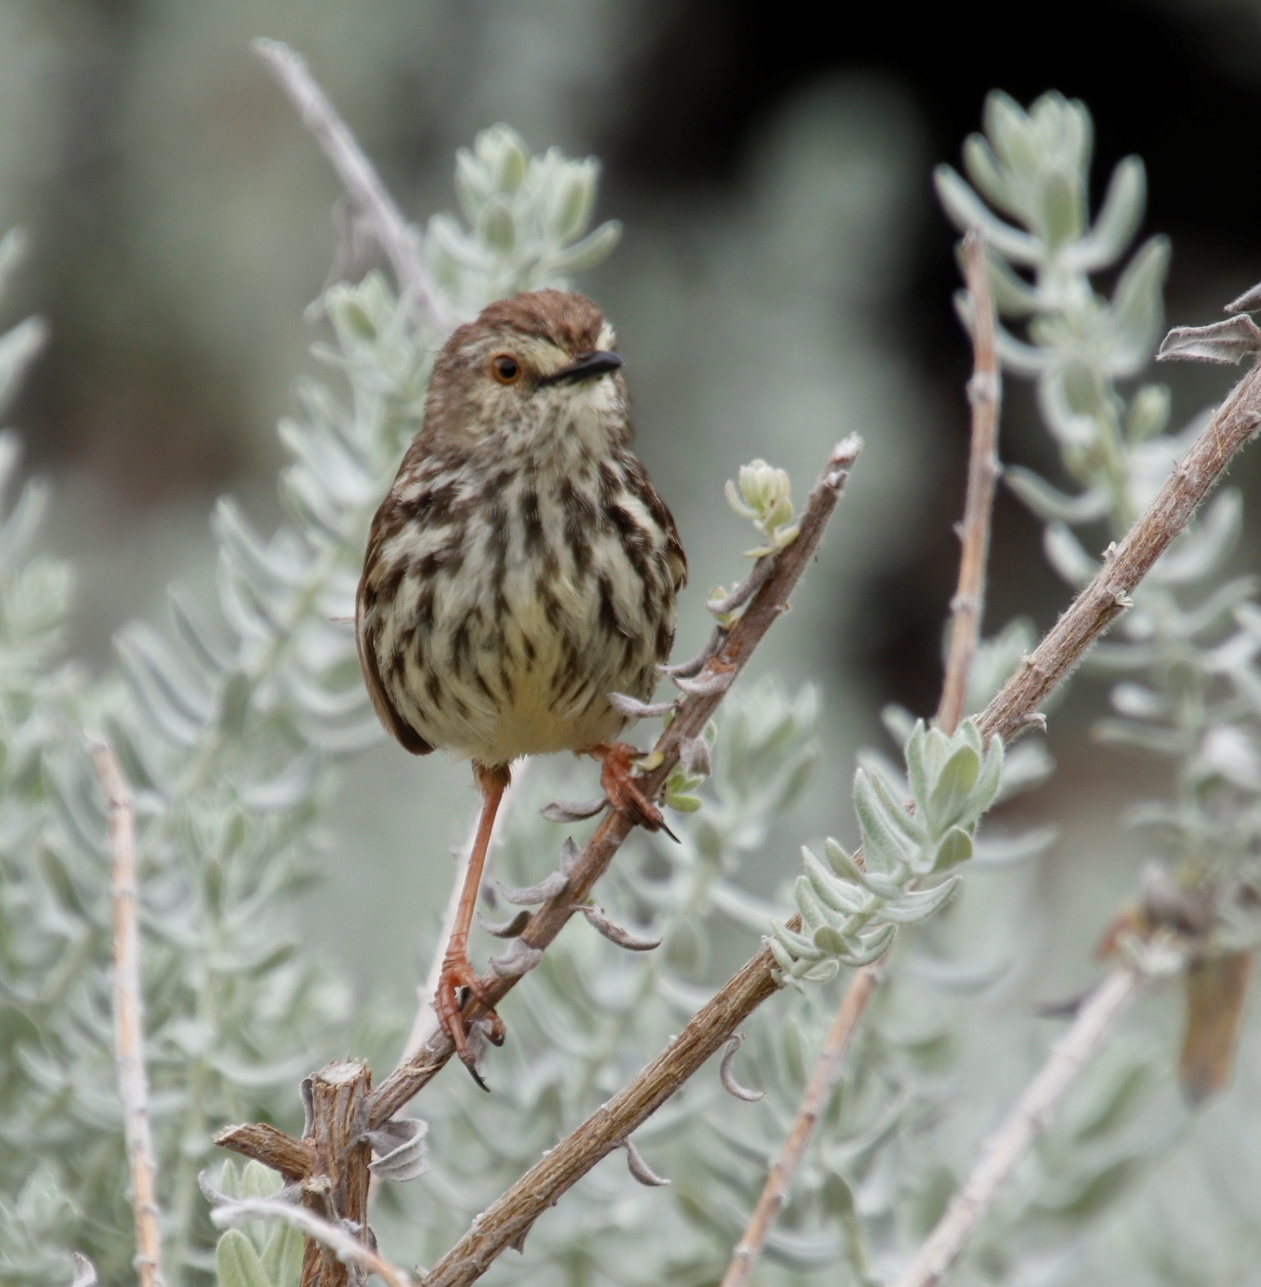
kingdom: Animalia
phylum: Chordata
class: Aves
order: Passeriformes
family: Cisticolidae
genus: Prinia
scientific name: Prinia maculosa
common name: Karoo prinia
